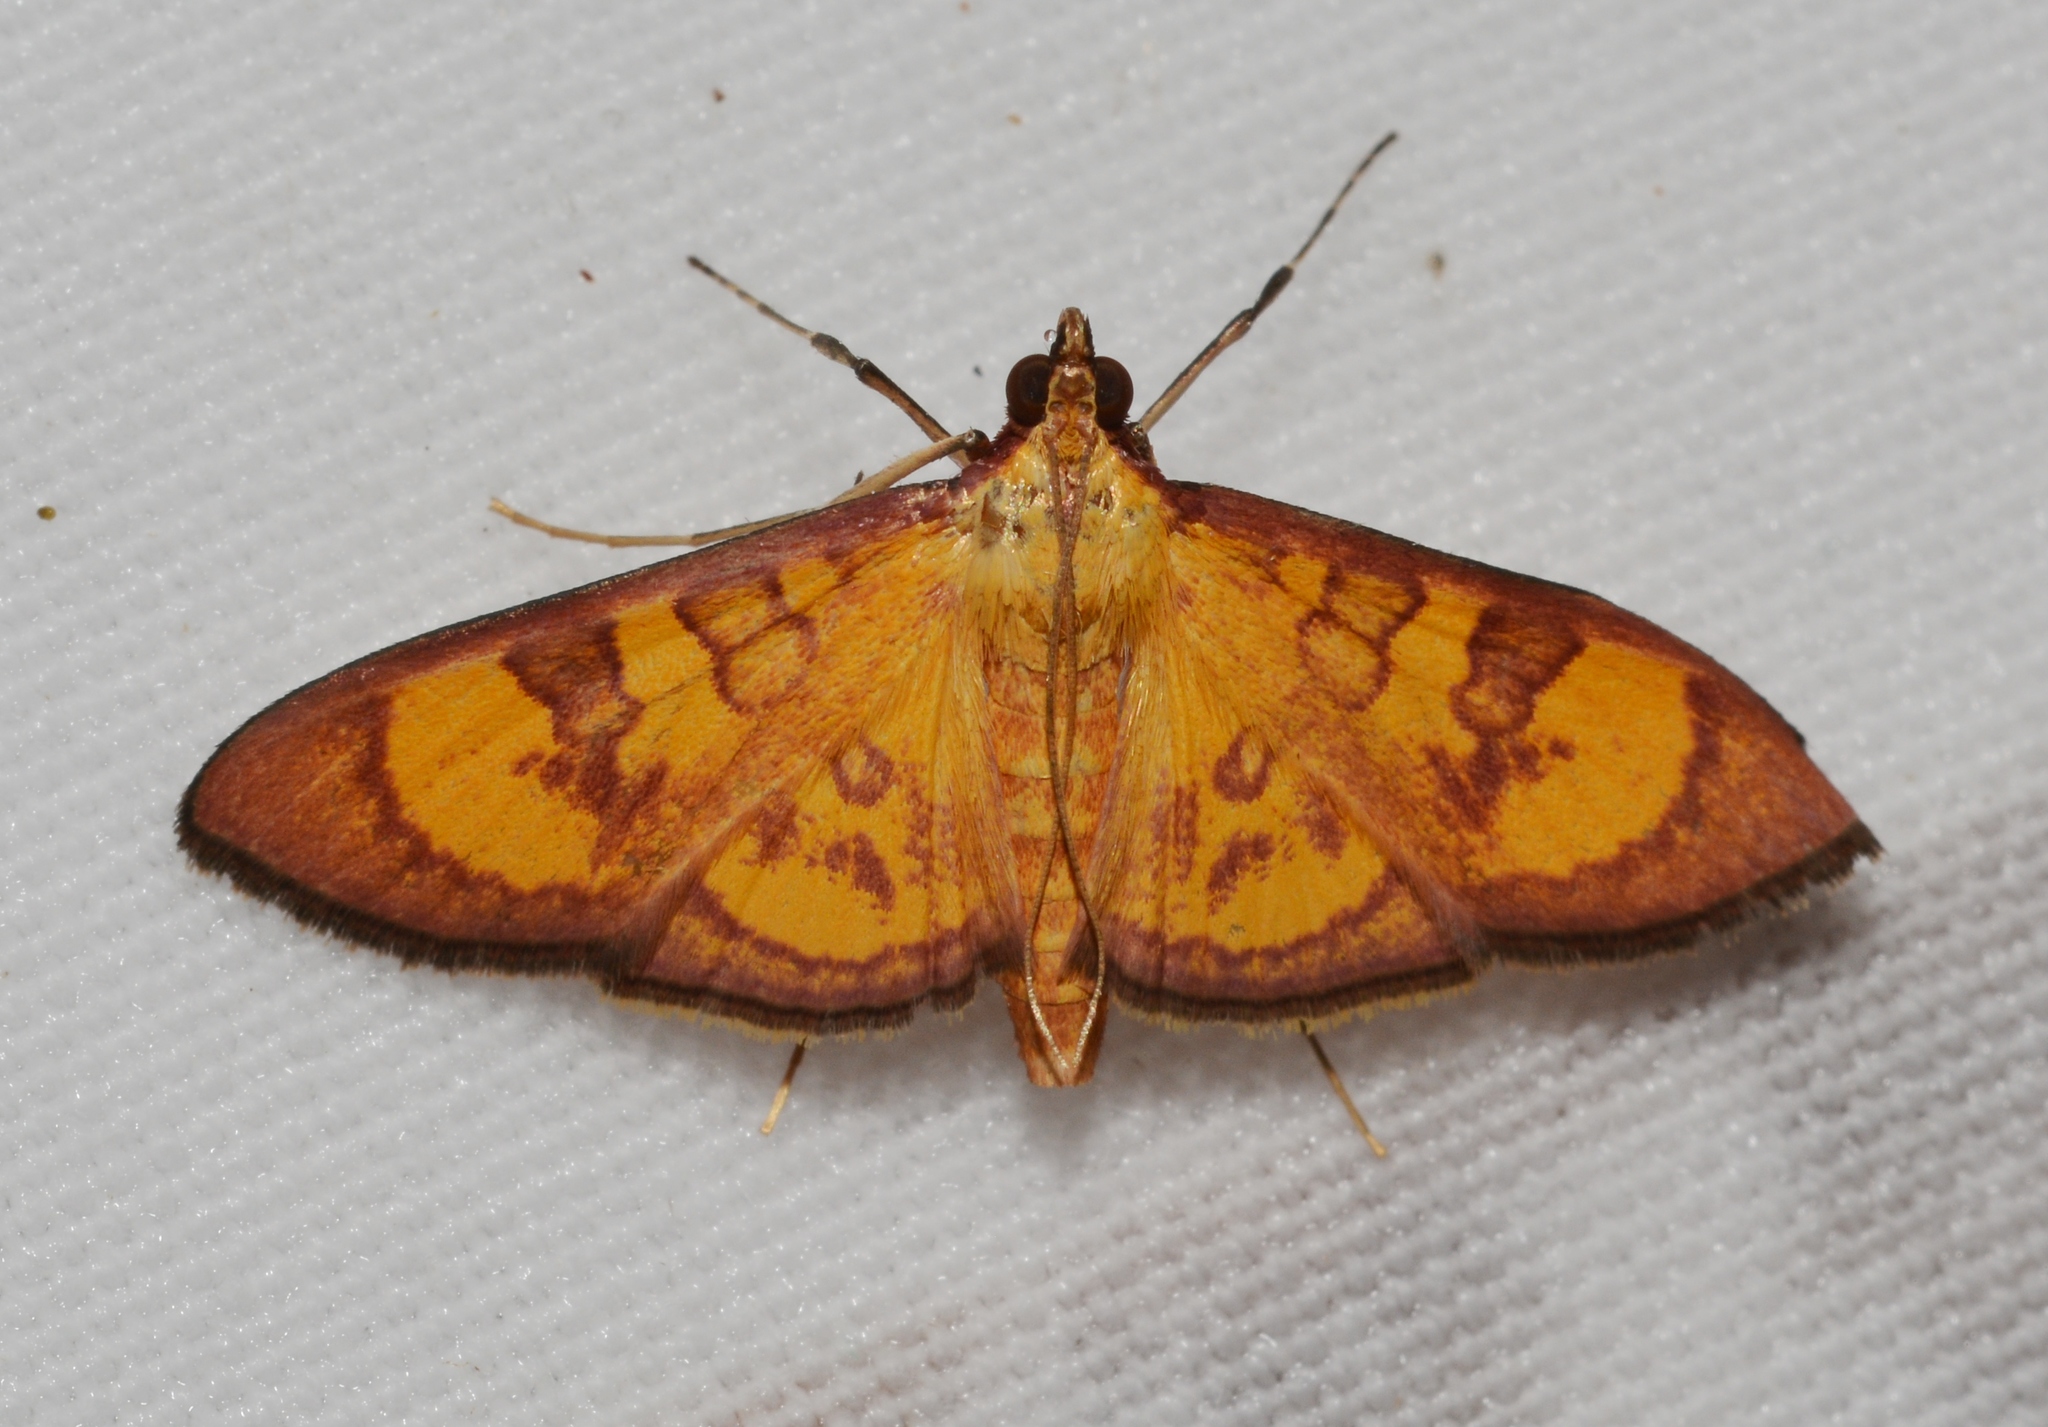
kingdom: Animalia
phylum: Arthropoda
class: Insecta
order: Lepidoptera
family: Crambidae
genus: Trithyris
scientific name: Trithyris
